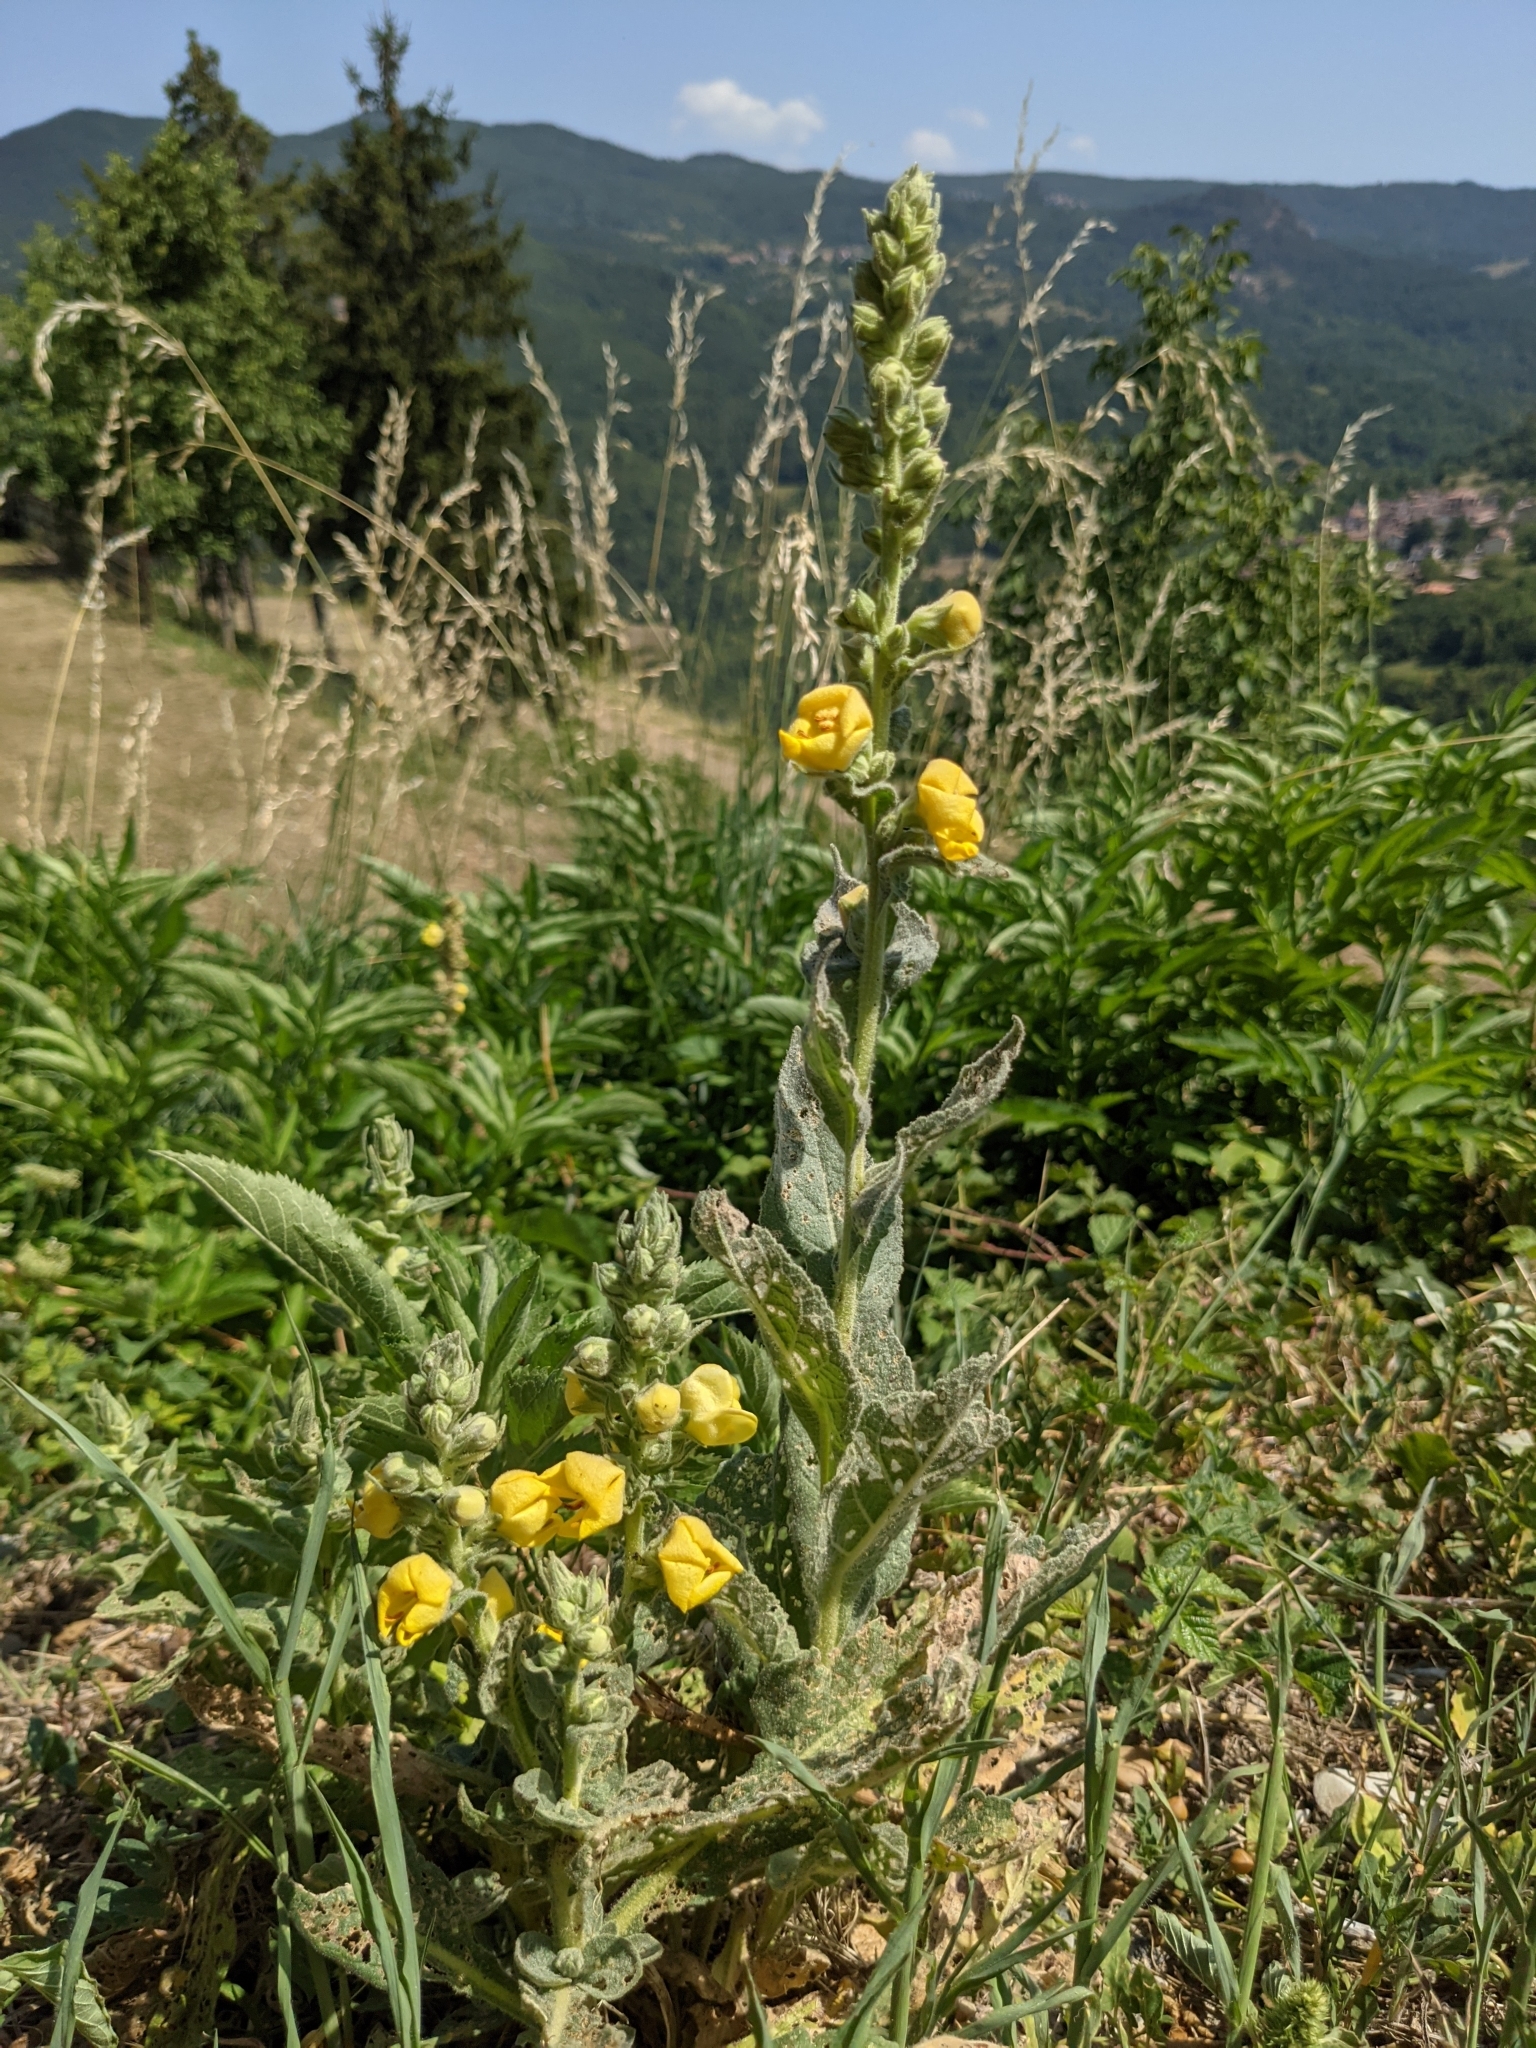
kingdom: Plantae
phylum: Tracheophyta
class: Magnoliopsida
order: Lamiales
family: Scrophulariaceae
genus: Verbascum
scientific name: Verbascum thapsus
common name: Common mullein
